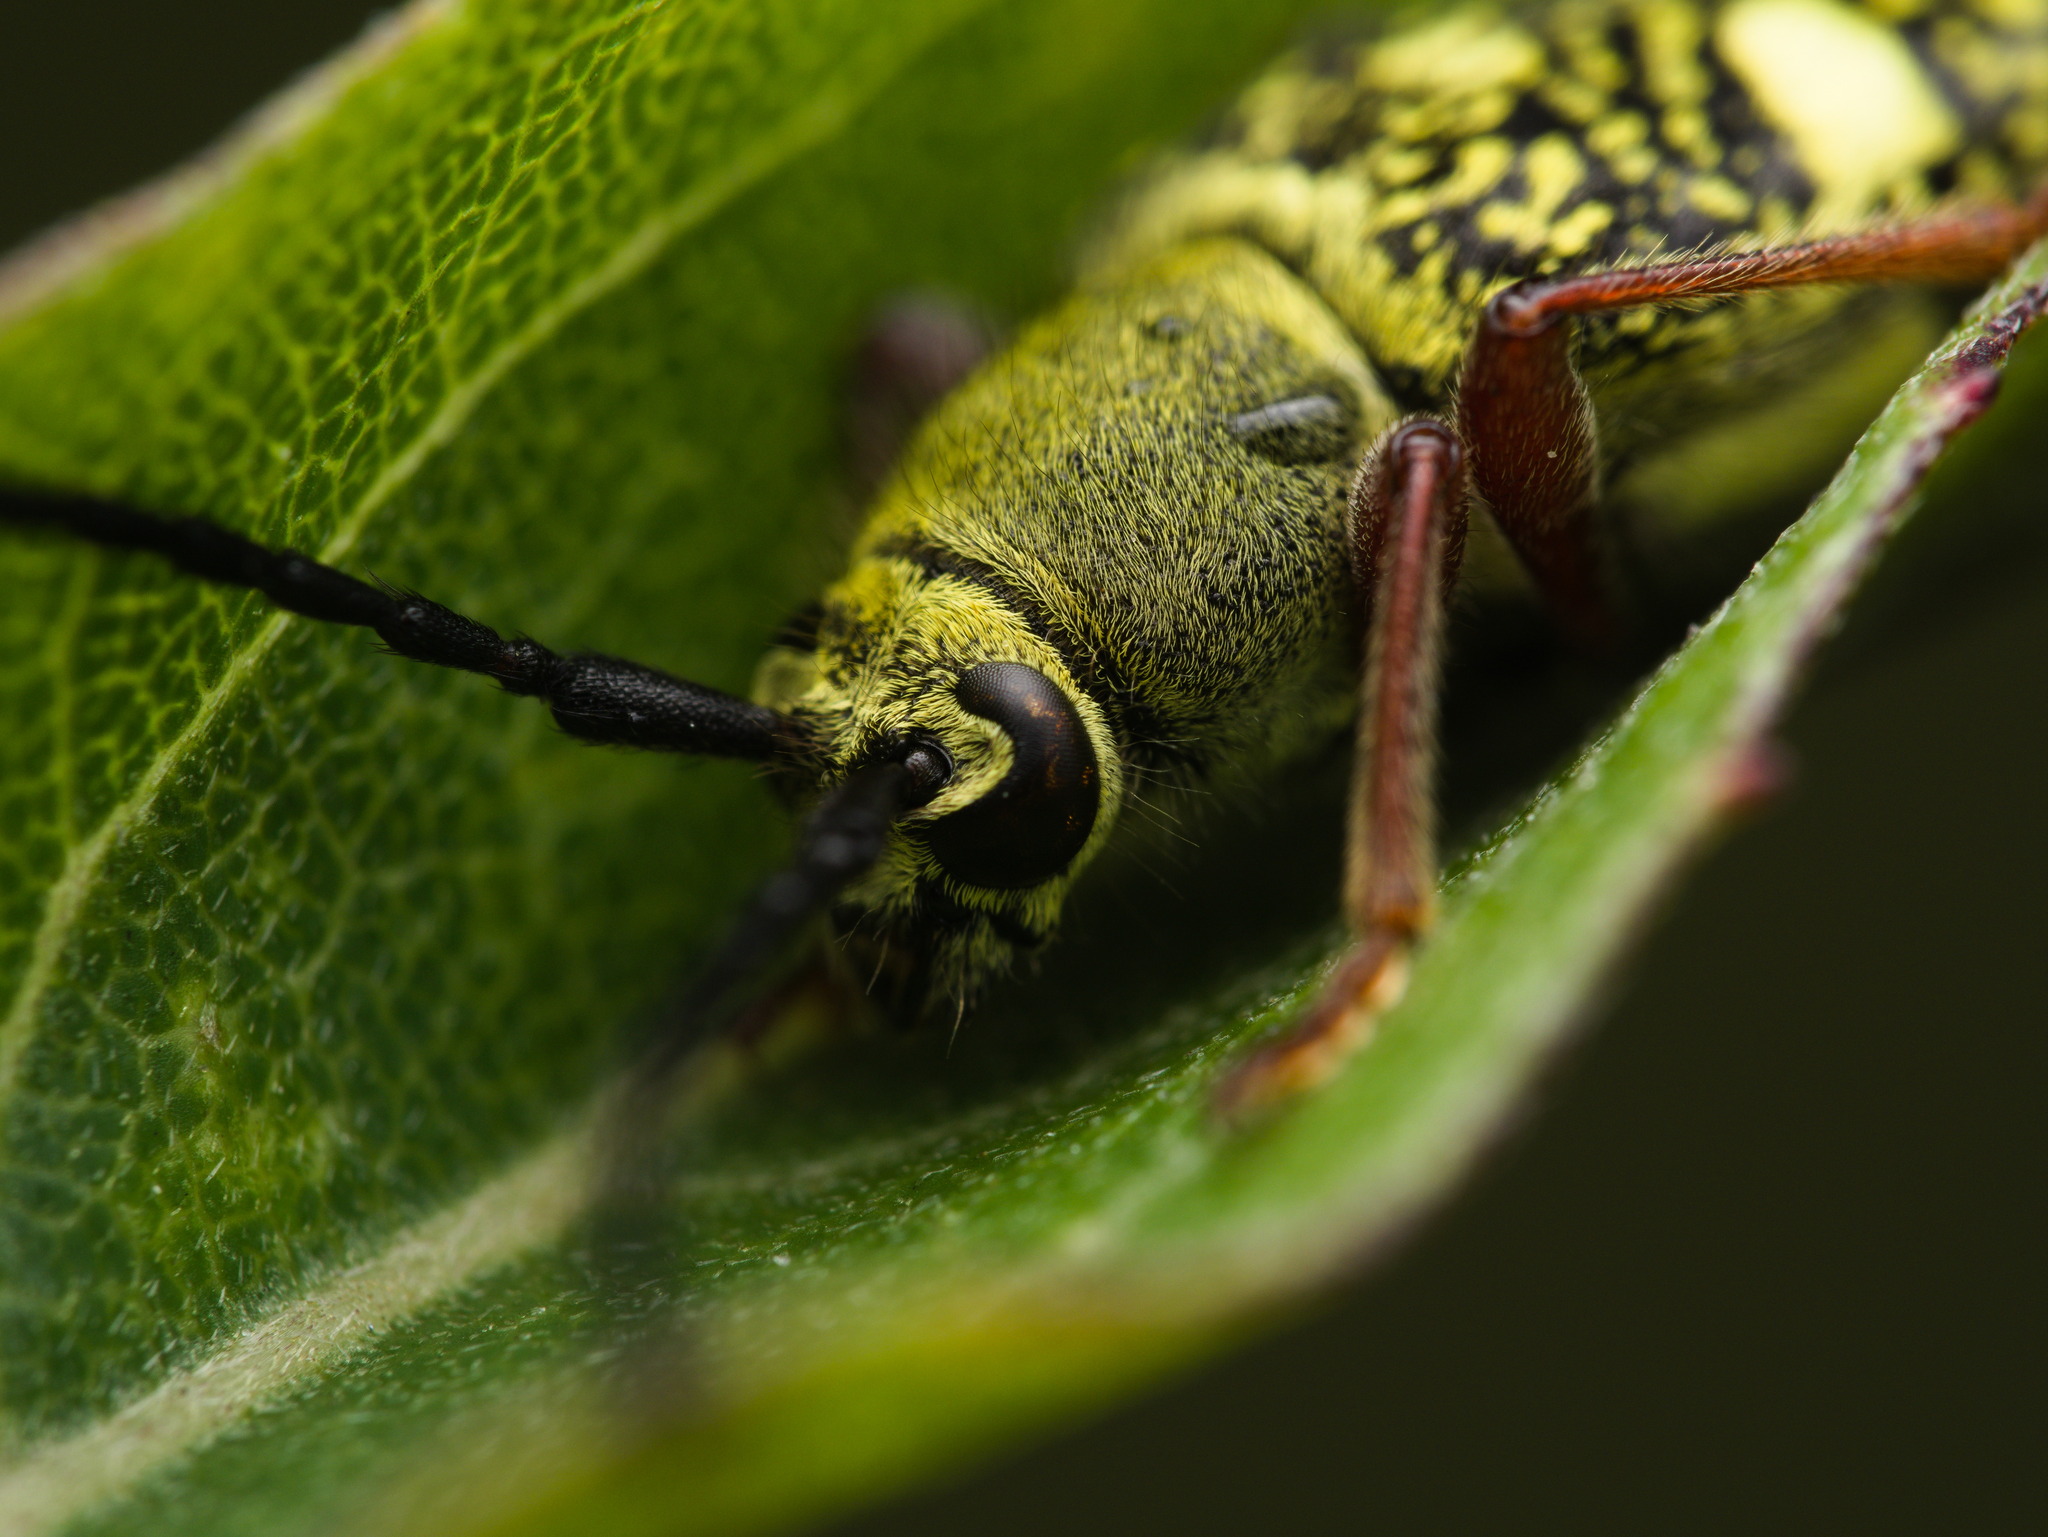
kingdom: Animalia
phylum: Arthropoda
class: Insecta
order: Coleoptera
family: Cerambycidae
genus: Ochraethes
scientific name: Ochraethes
